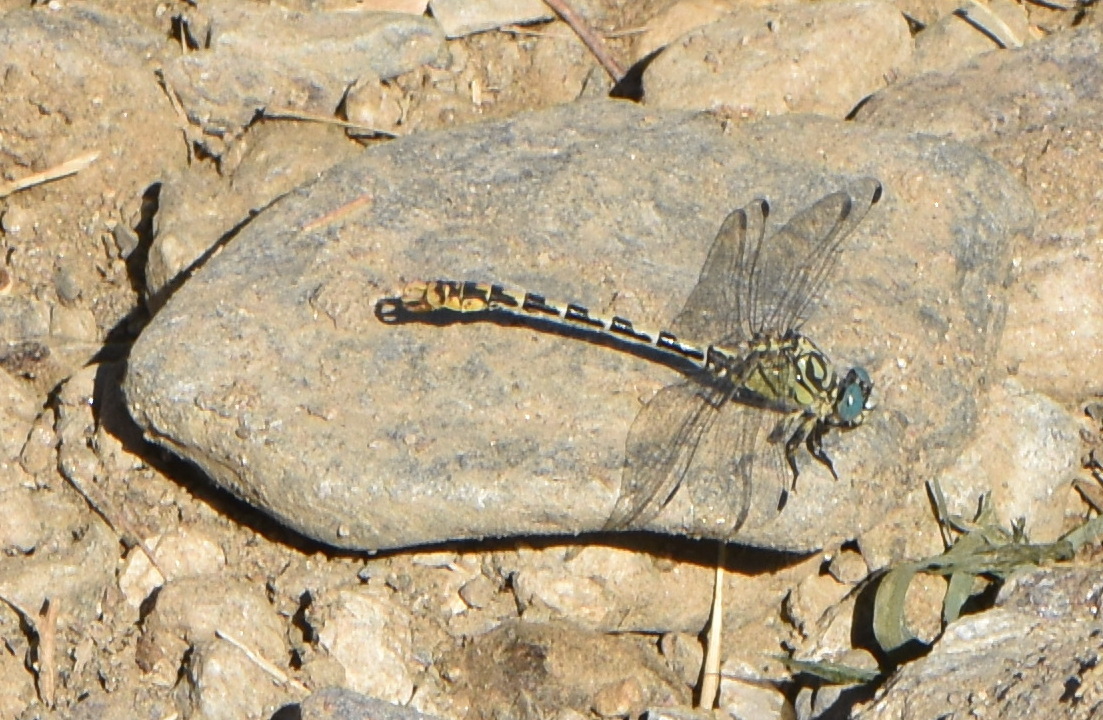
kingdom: Animalia
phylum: Arthropoda
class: Insecta
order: Odonata
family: Gomphidae
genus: Onychogomphus
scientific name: Onychogomphus forcipatus
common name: Small pincertail
